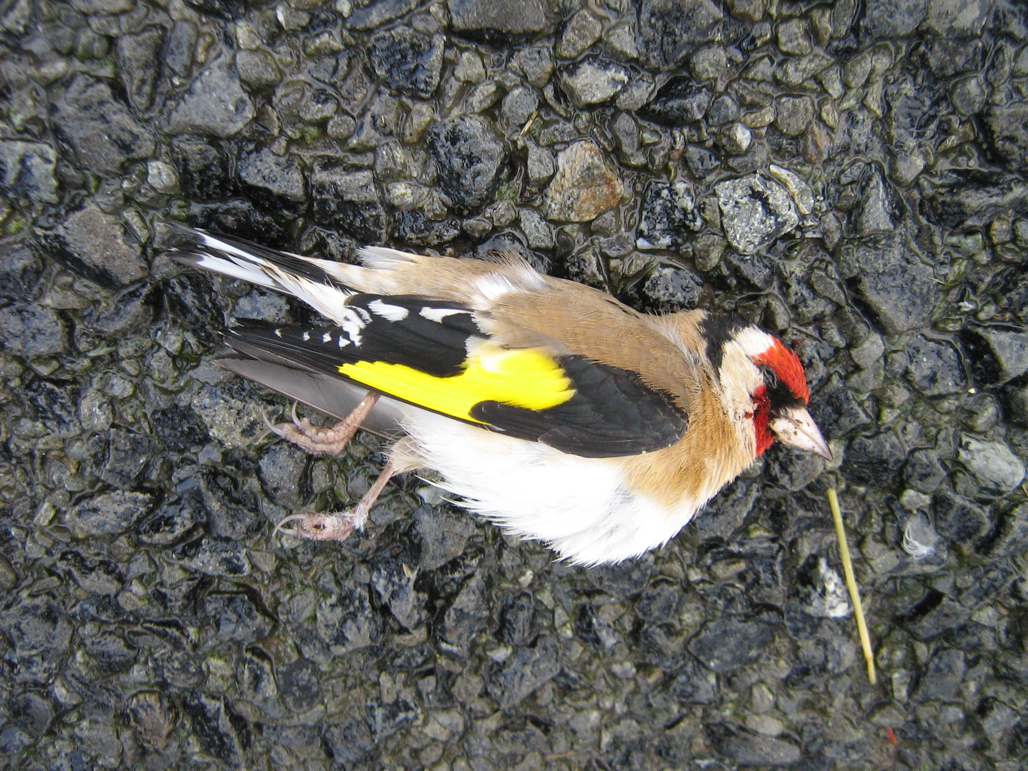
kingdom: Animalia
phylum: Chordata
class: Aves
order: Passeriformes
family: Fringillidae
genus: Carduelis
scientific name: Carduelis carduelis
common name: European goldfinch
